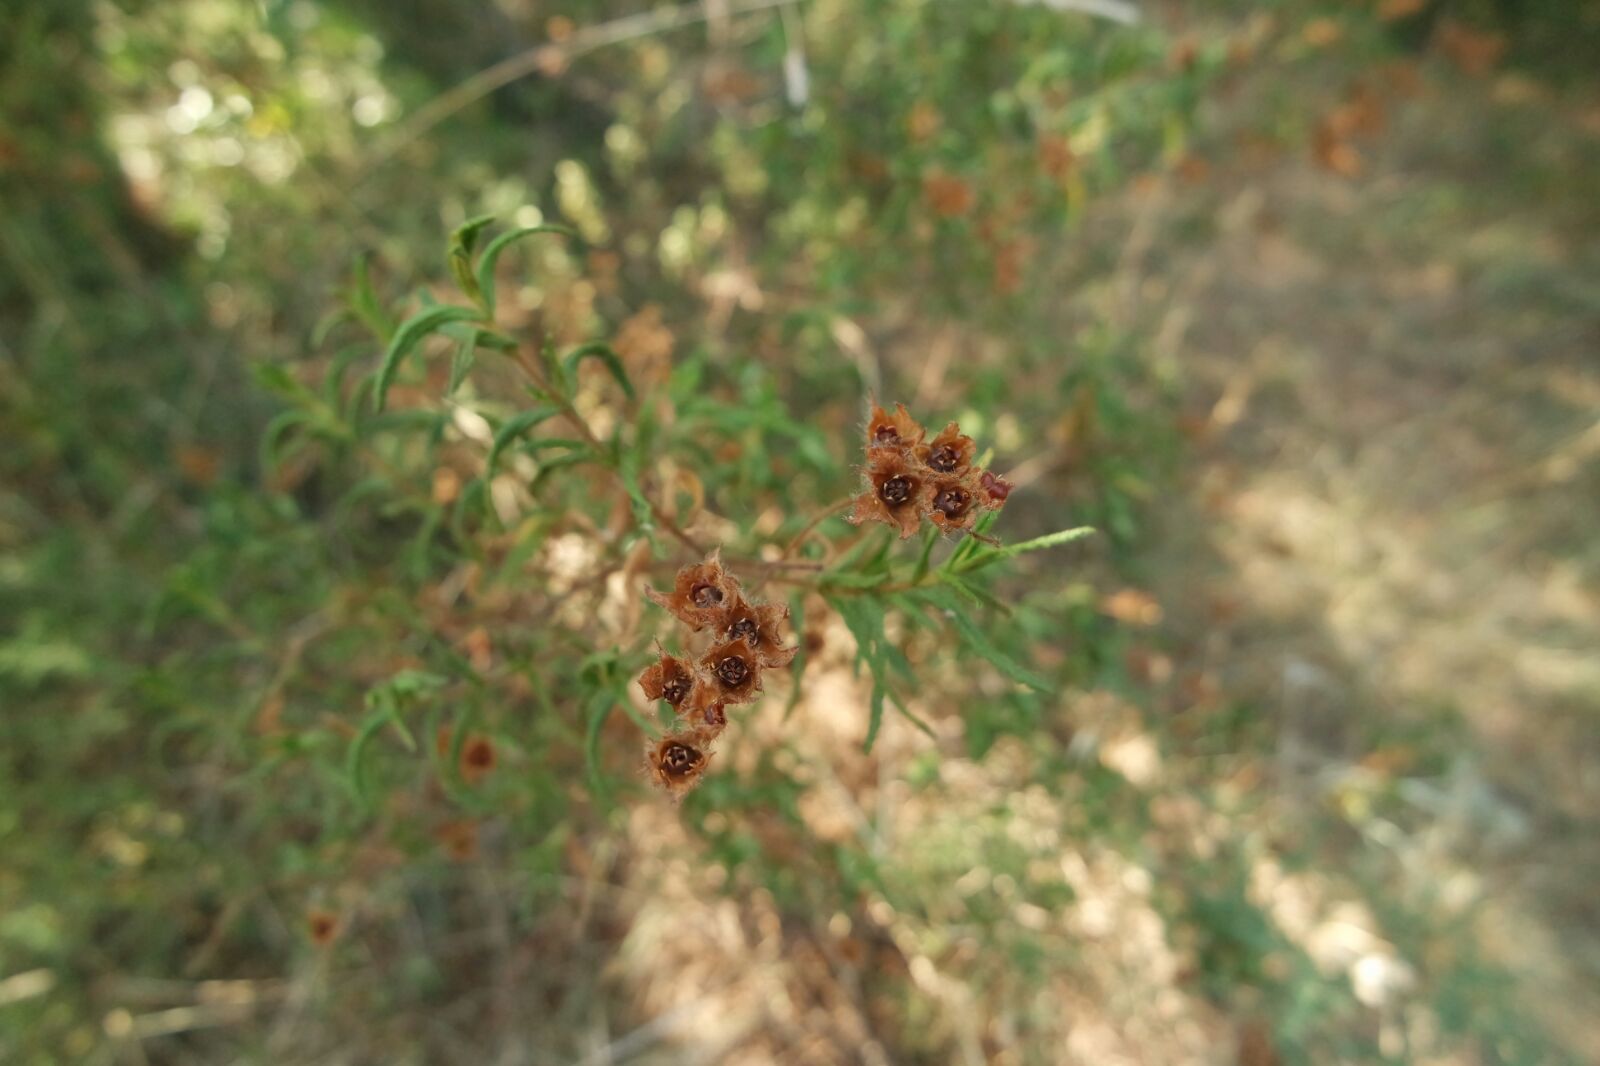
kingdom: Plantae
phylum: Tracheophyta
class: Magnoliopsida
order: Malvales
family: Cistaceae
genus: Cistus
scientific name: Cistus monspeliensis
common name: Montpelier cistus
